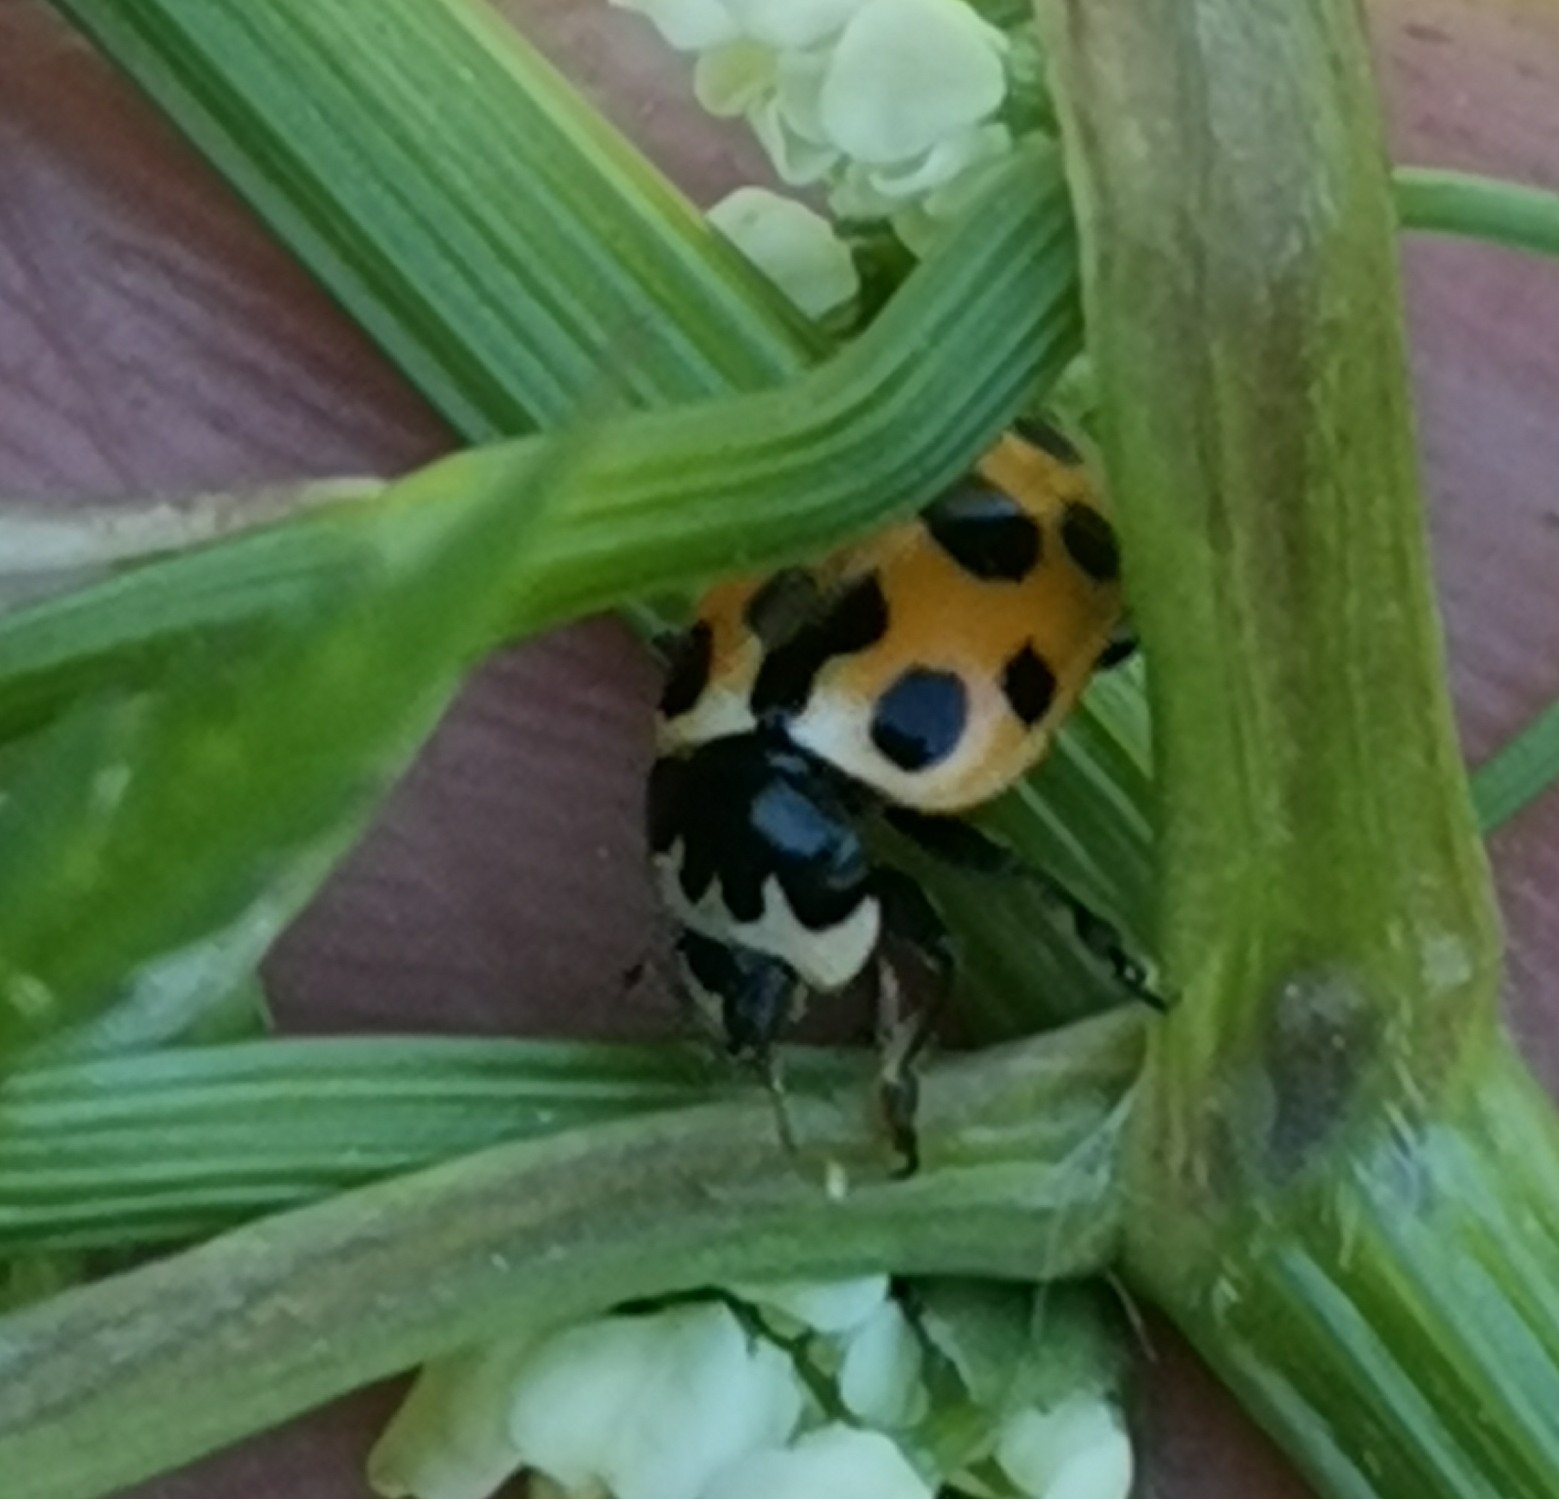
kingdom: Animalia
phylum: Arthropoda
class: Insecta
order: Coleoptera
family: Coccinellidae
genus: Ceratomegilla
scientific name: Ceratomegilla notata
